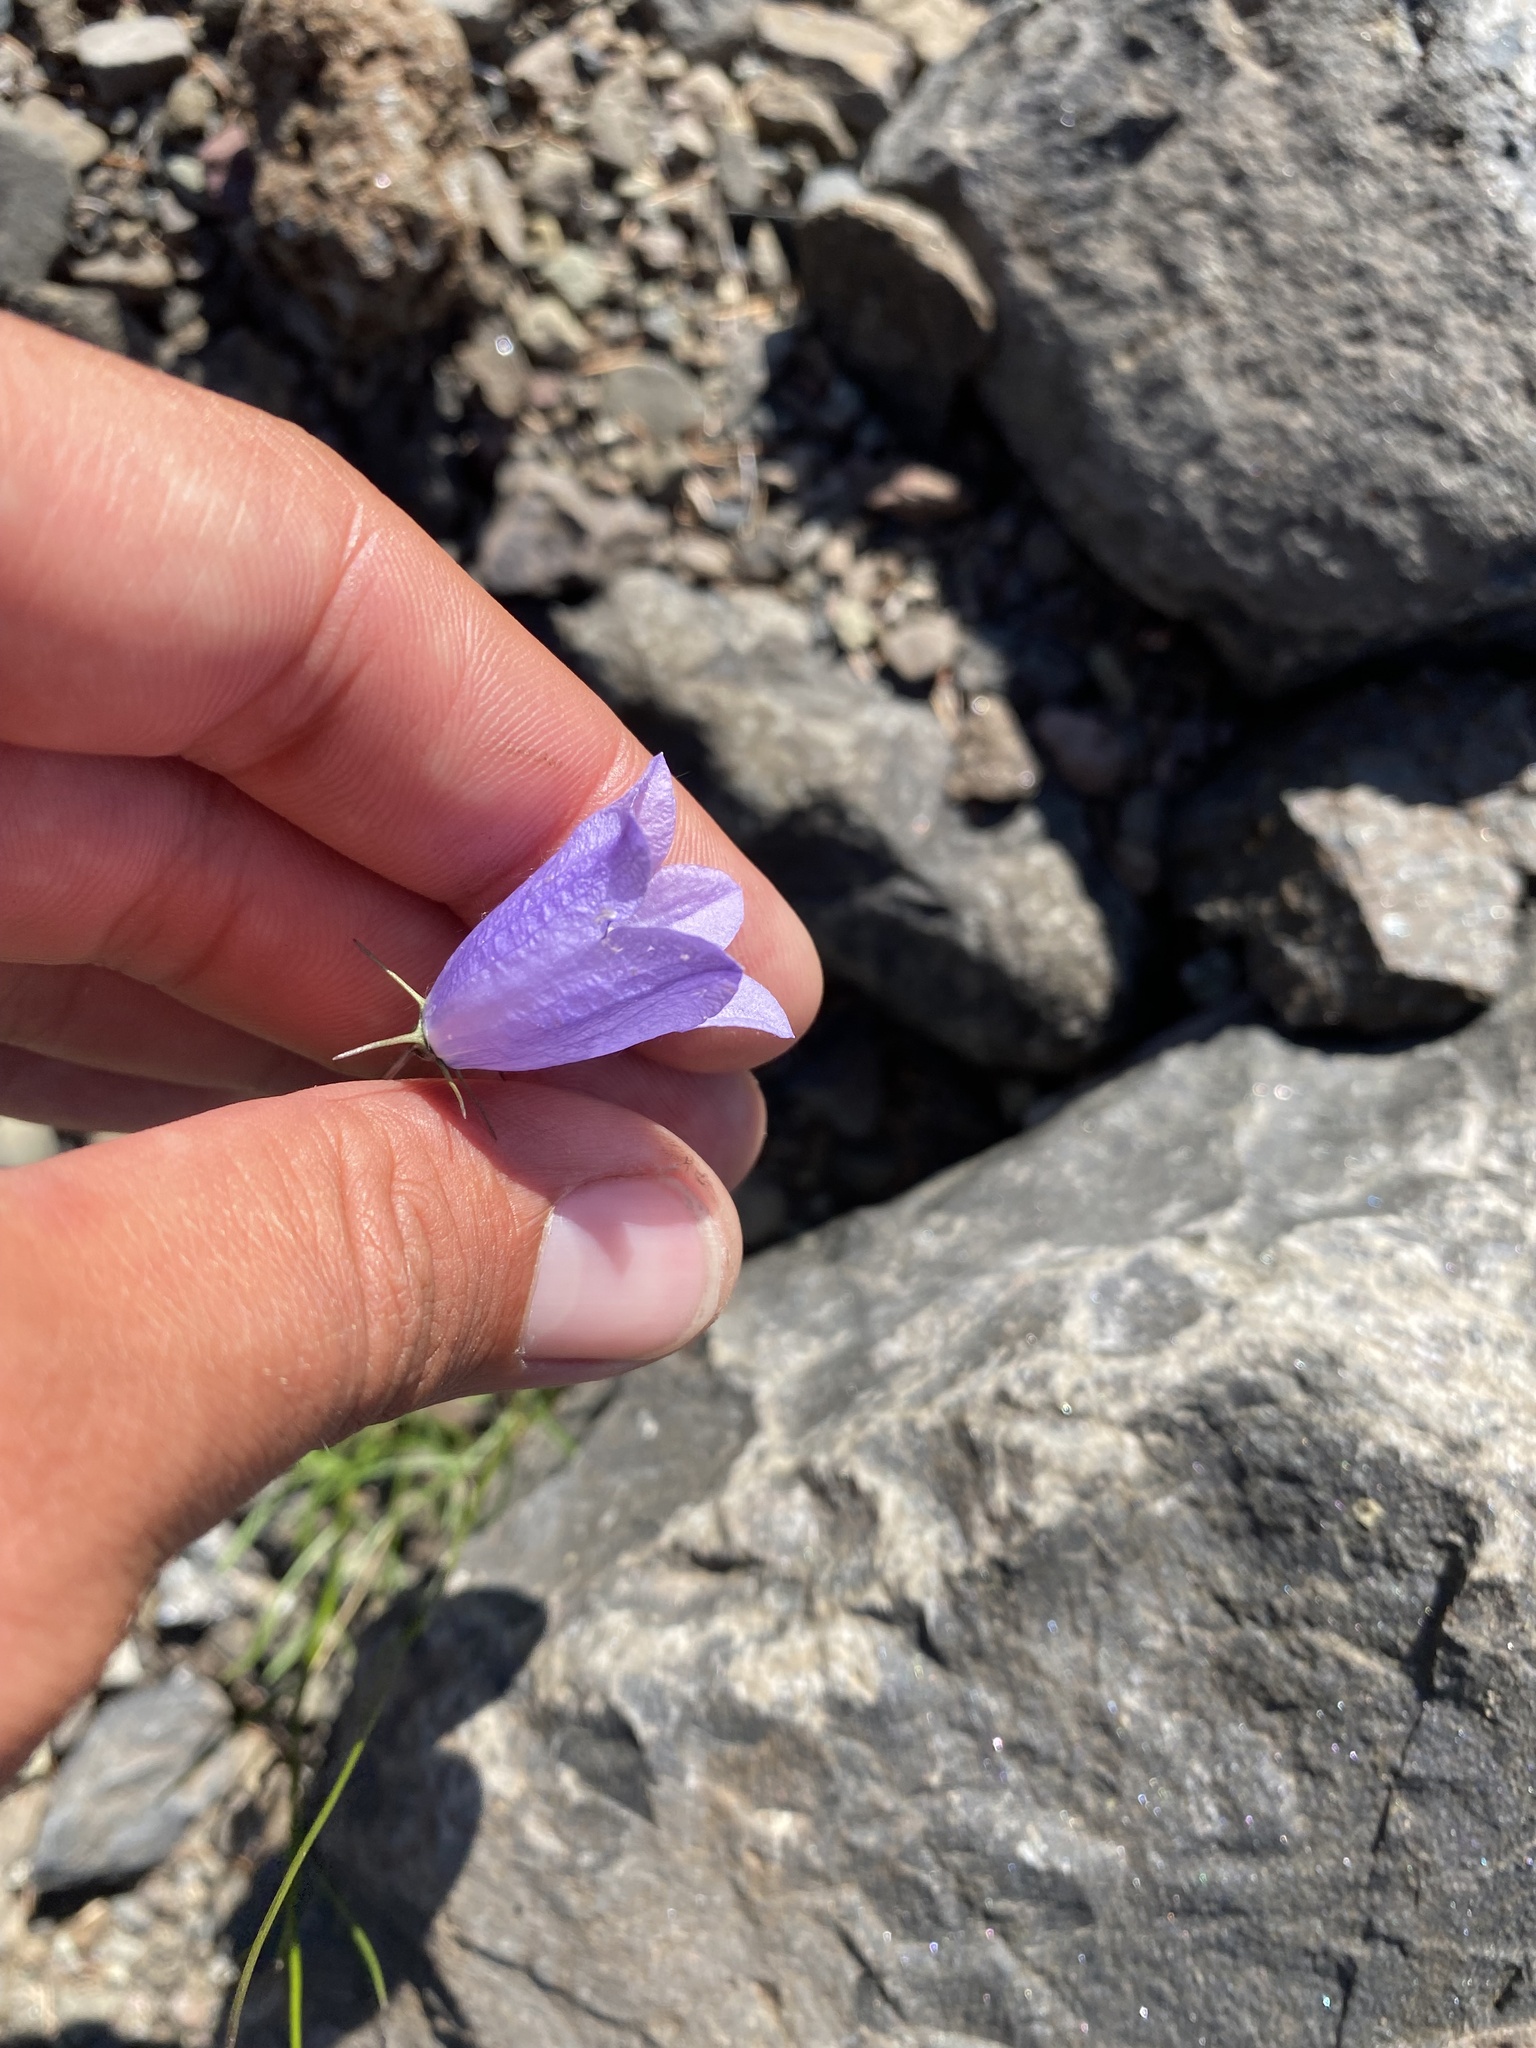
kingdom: Plantae
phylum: Tracheophyta
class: Magnoliopsida
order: Asterales
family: Campanulaceae
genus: Campanula
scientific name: Campanula rotundifolia
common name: Harebell
